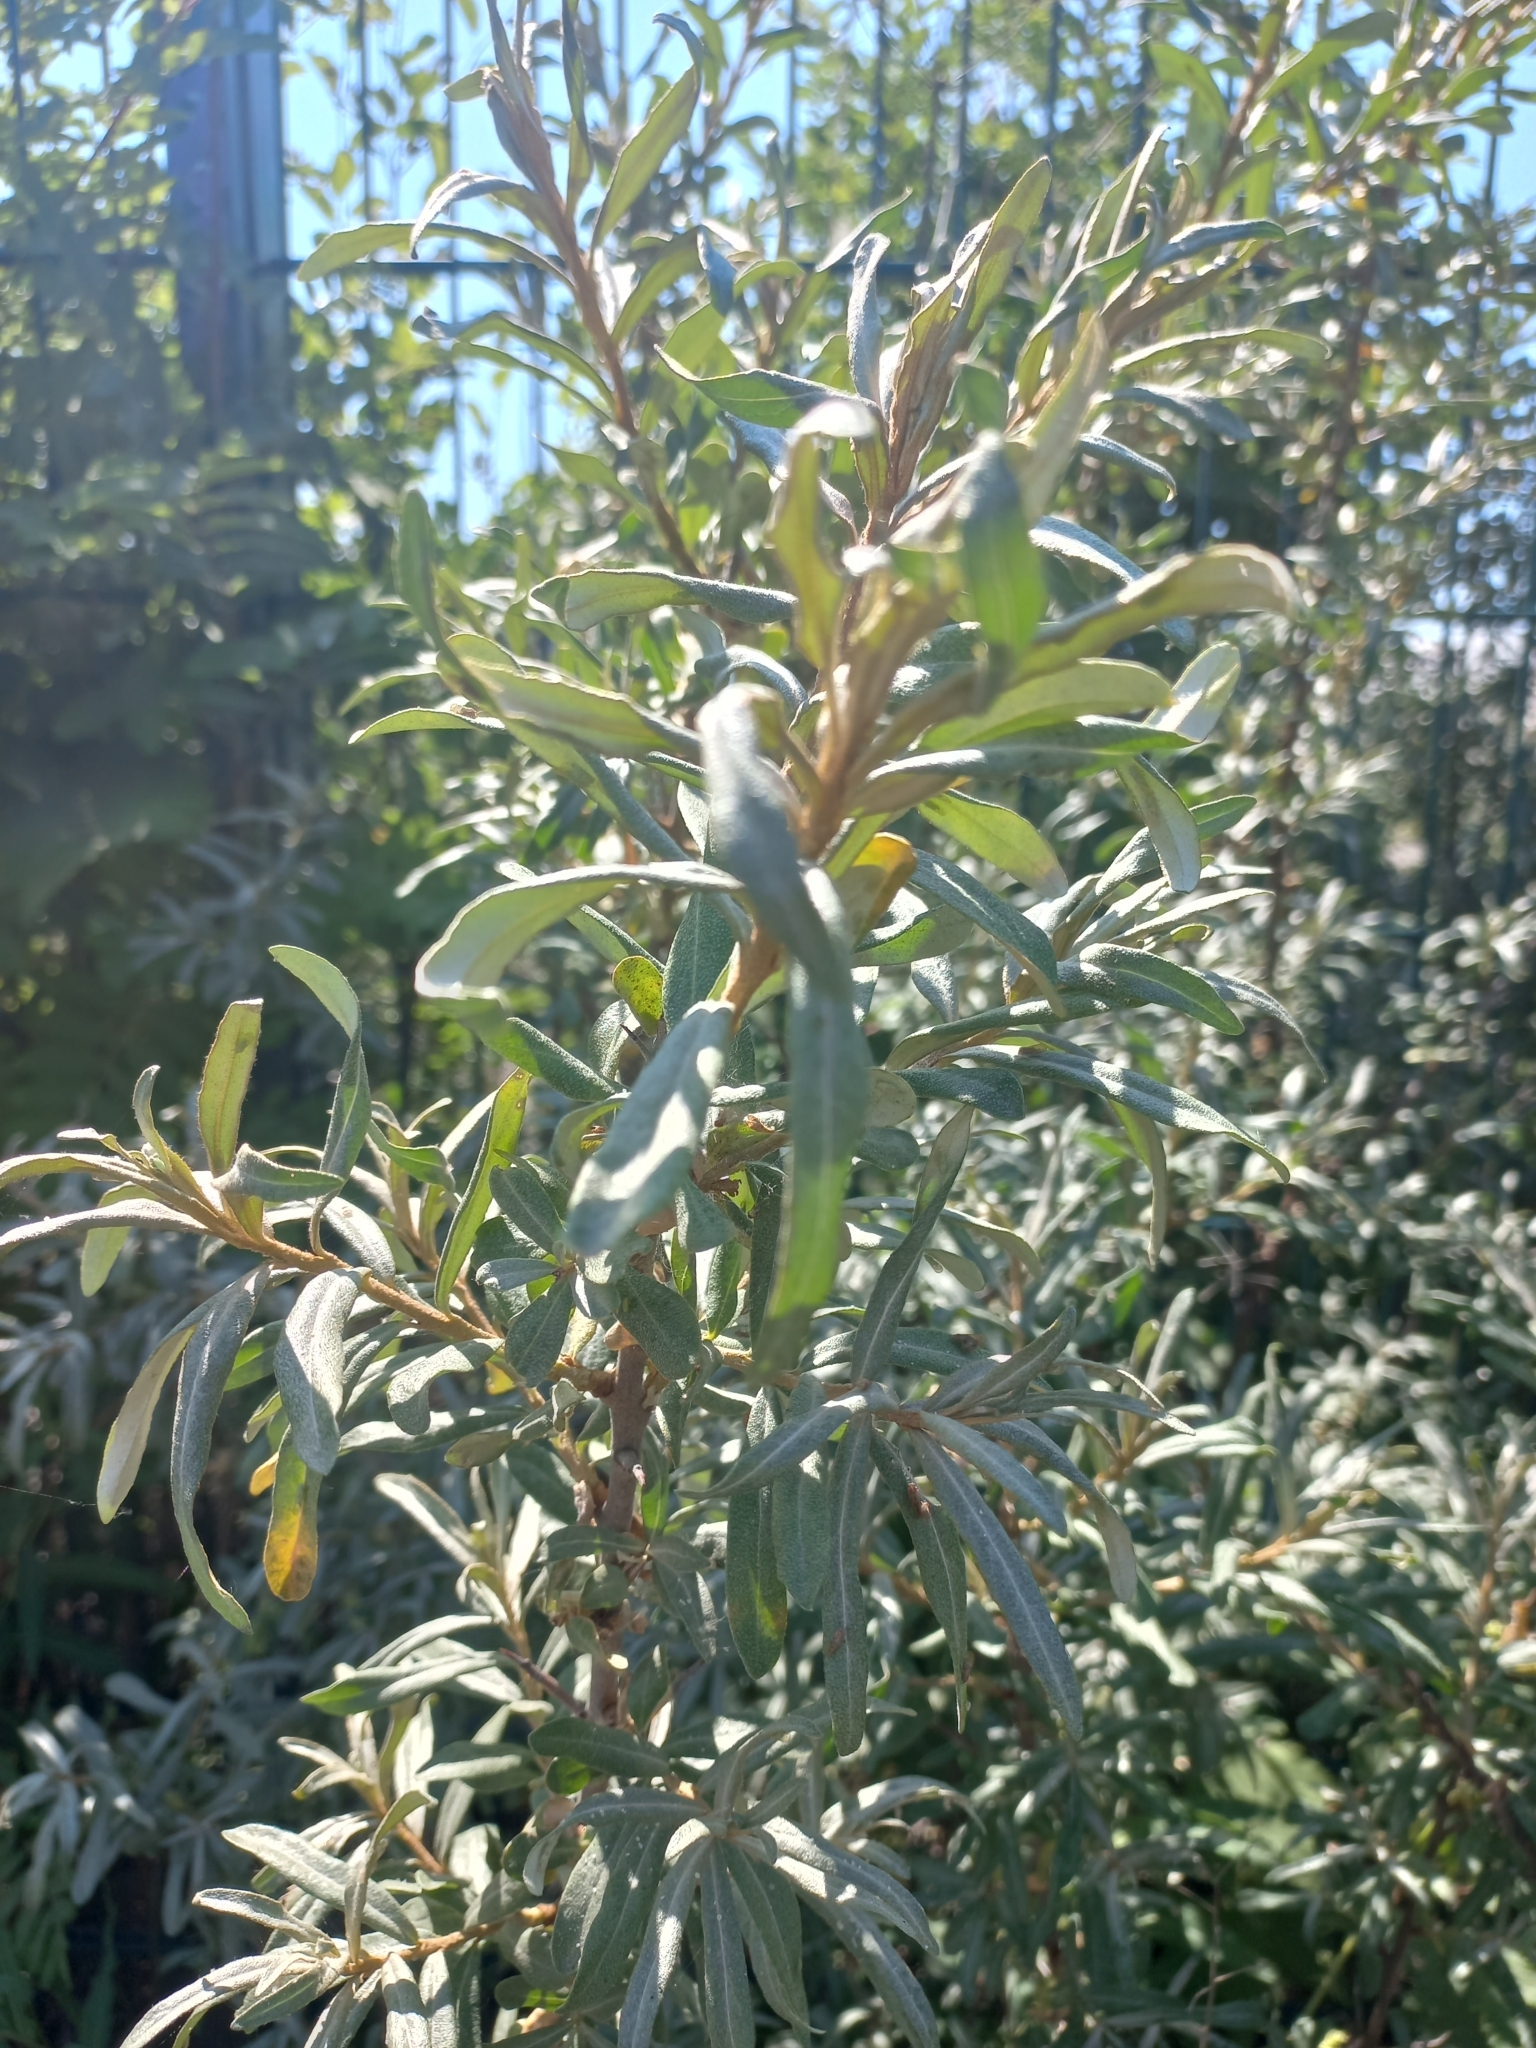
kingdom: Plantae
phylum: Tracheophyta
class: Magnoliopsida
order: Rosales
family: Elaeagnaceae
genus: Hippophae
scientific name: Hippophae rhamnoides
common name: Sea-buckthorn
